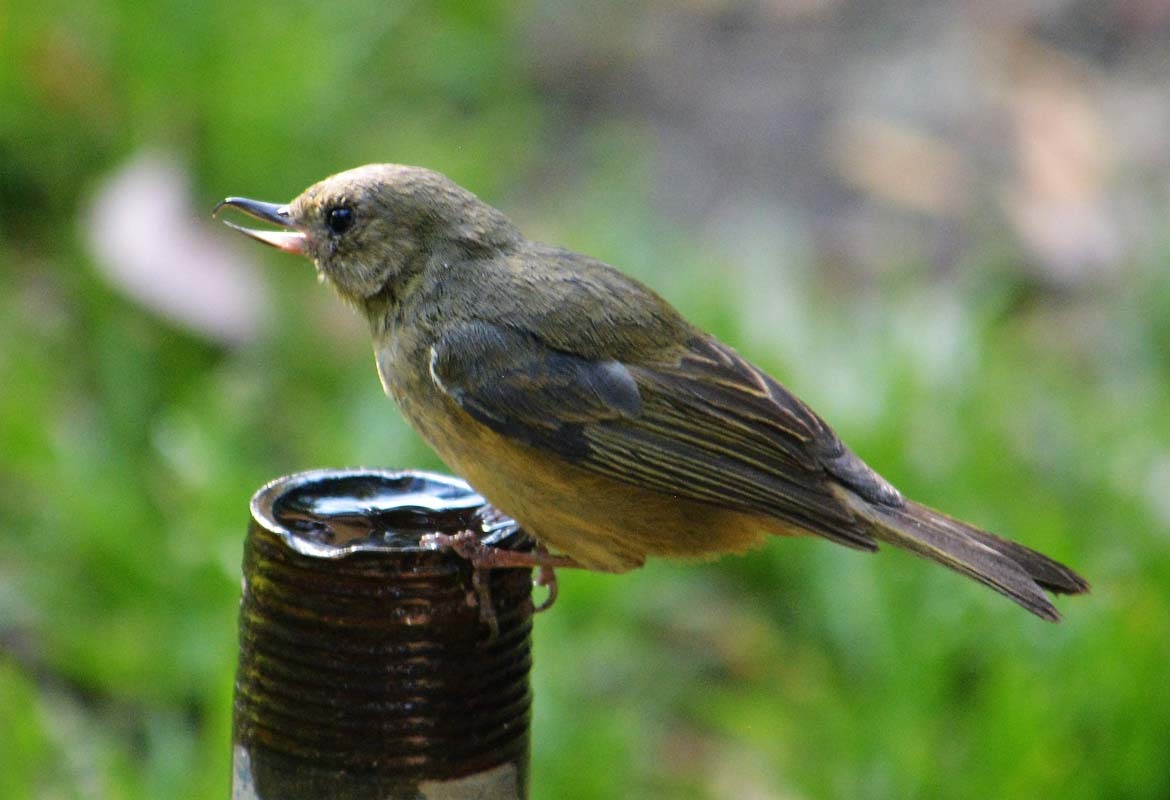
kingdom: Animalia
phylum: Chordata
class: Aves
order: Passeriformes
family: Thraupidae
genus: Diglossa
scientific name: Diglossa baritula
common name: Cinnamon-bellied flowerpiercer
